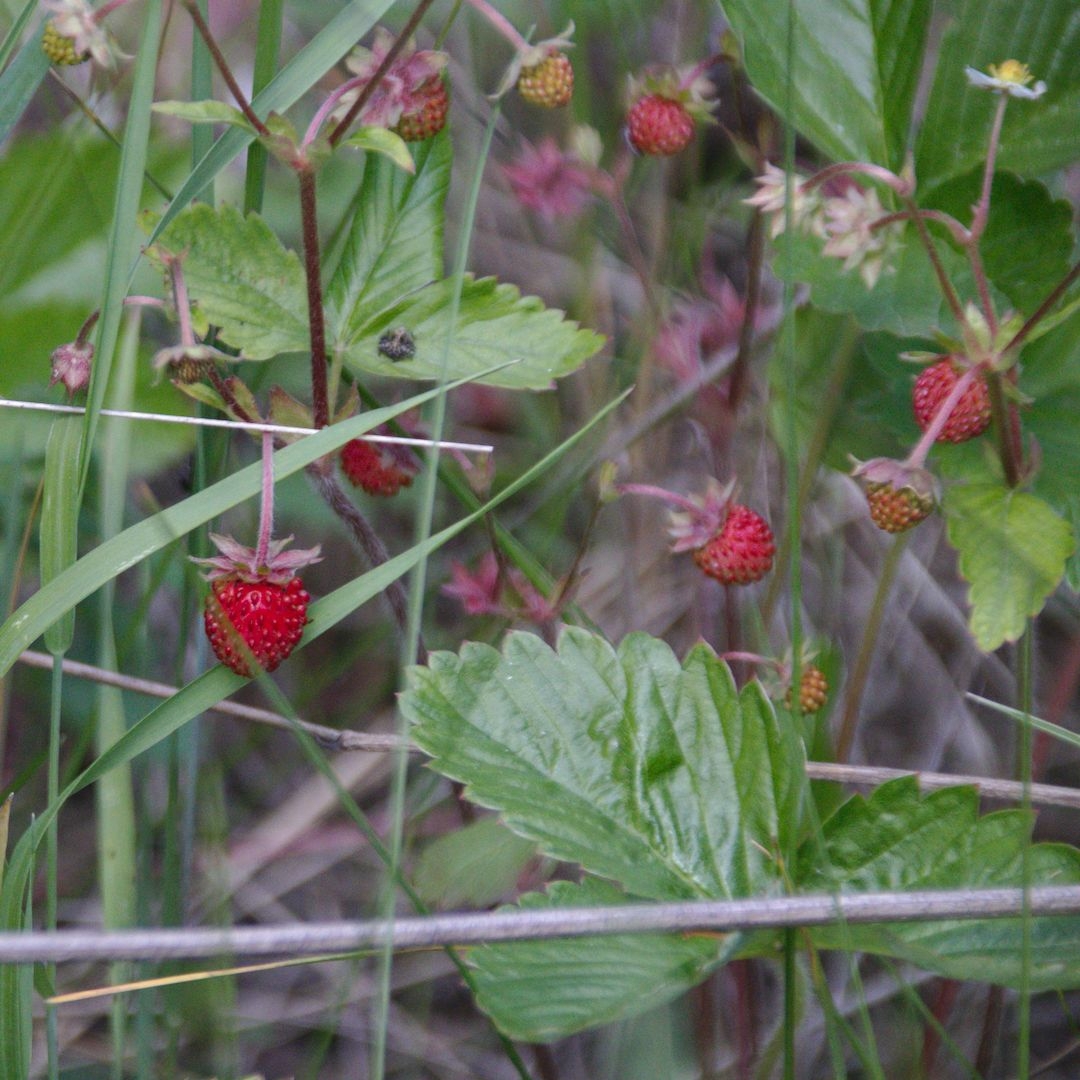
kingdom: Plantae
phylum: Tracheophyta
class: Magnoliopsida
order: Rosales
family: Rosaceae
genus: Fragaria
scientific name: Fragaria vesca
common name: Wild strawberry
